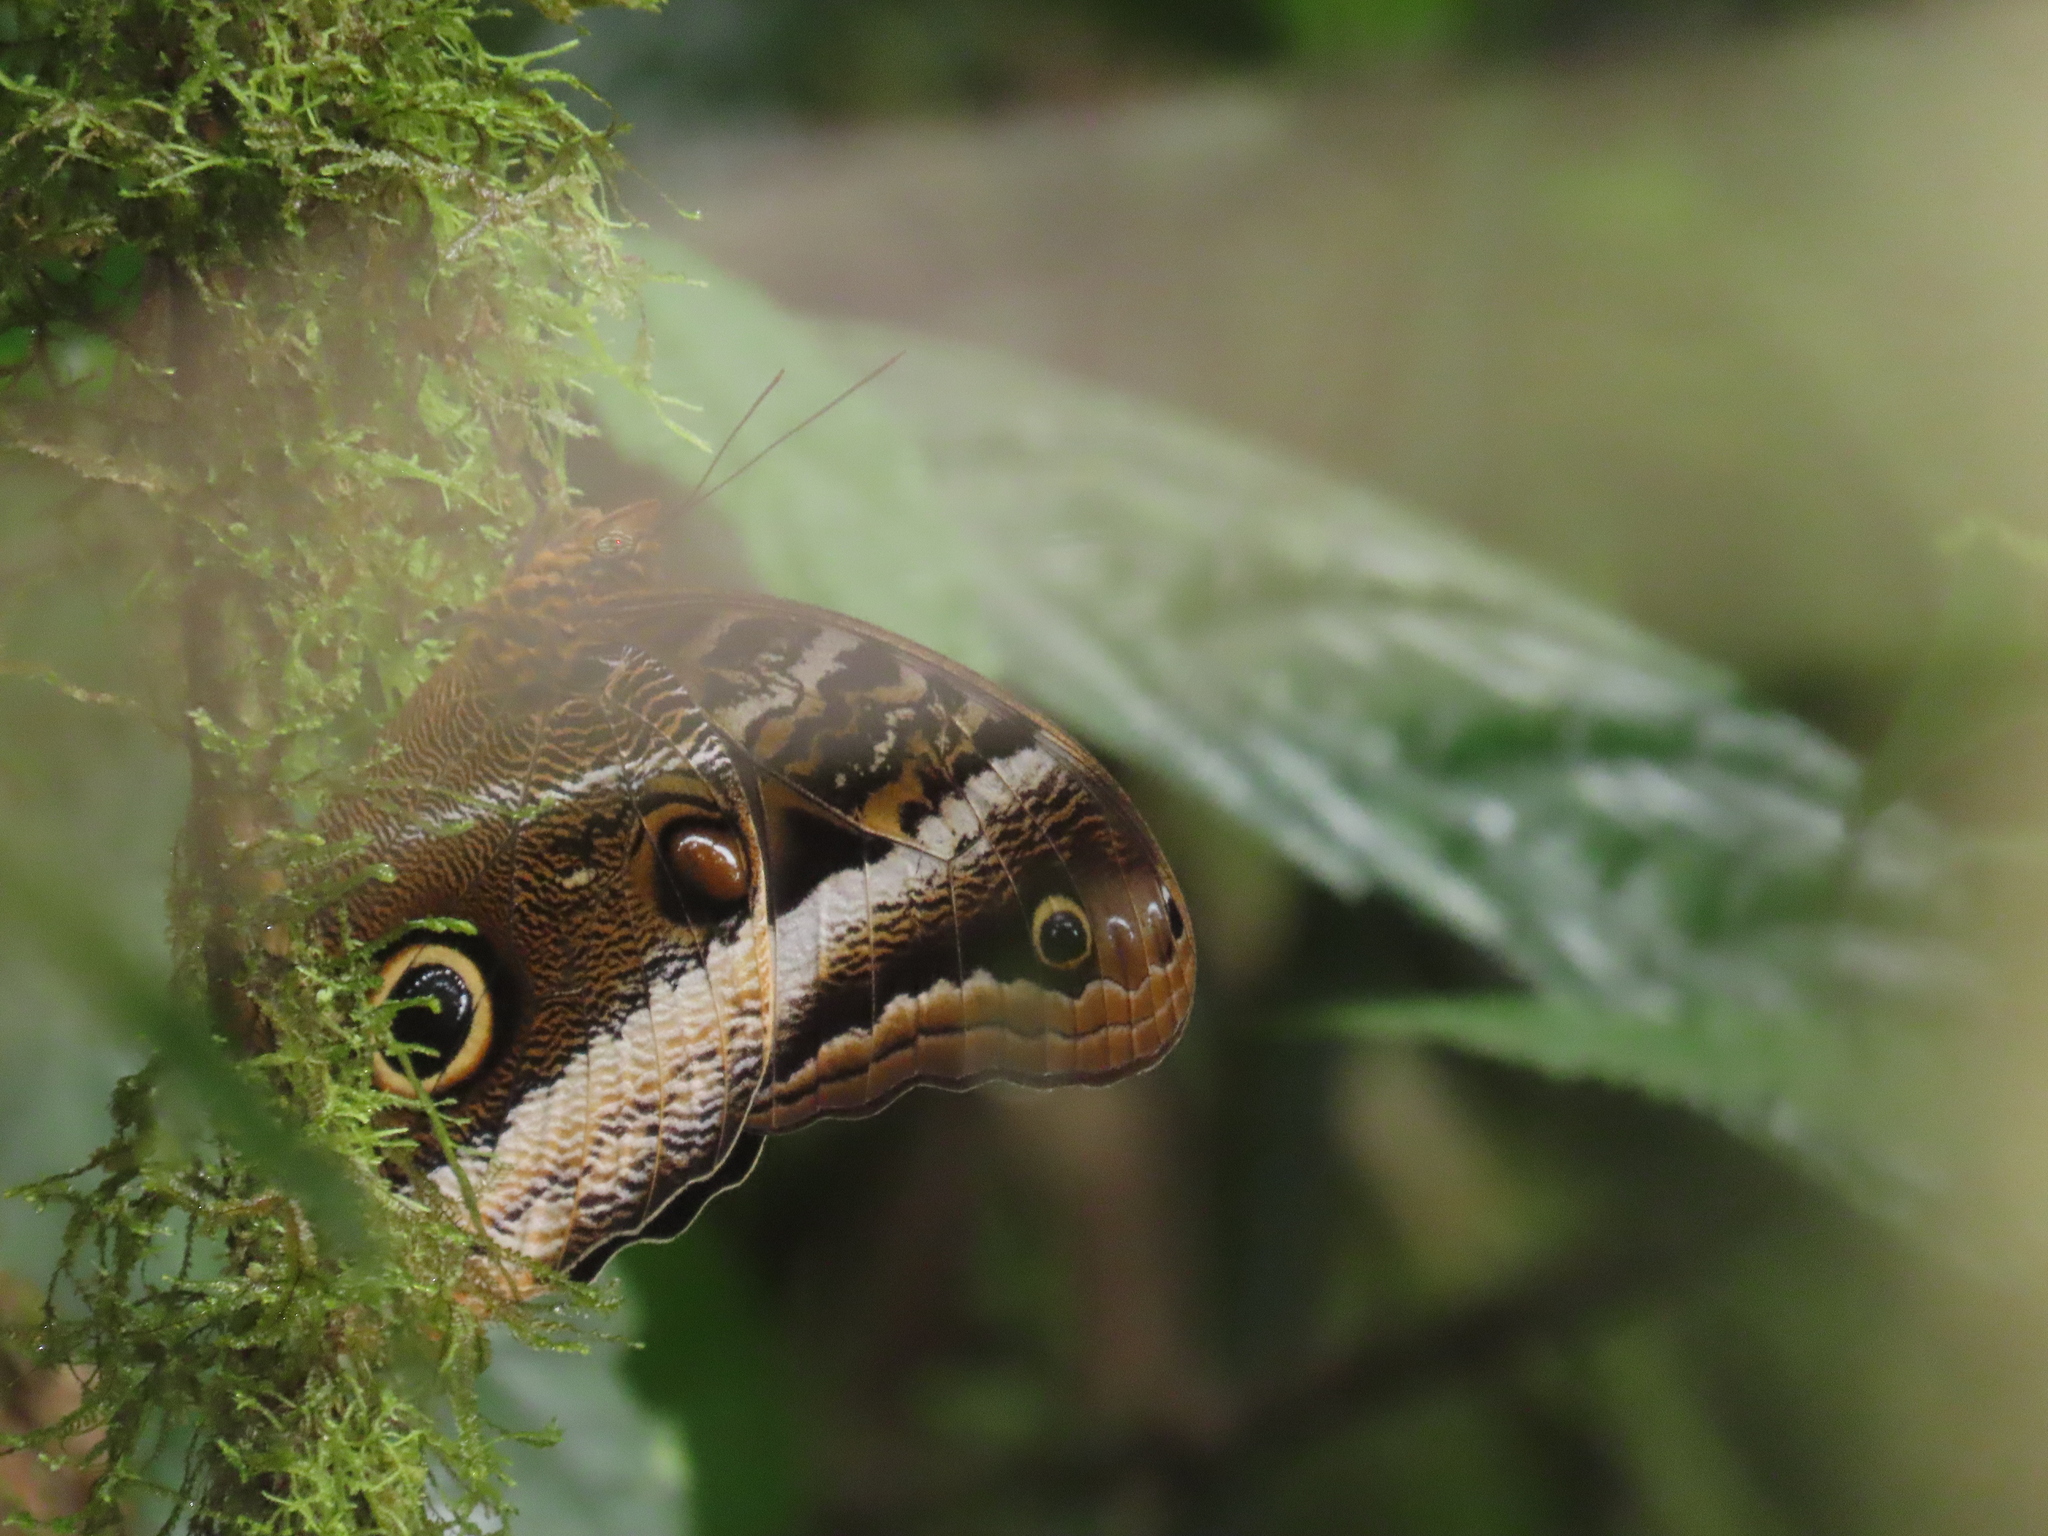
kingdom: Animalia
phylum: Arthropoda
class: Insecta
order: Lepidoptera
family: Nymphalidae
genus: Caligo
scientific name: Caligo atreus
